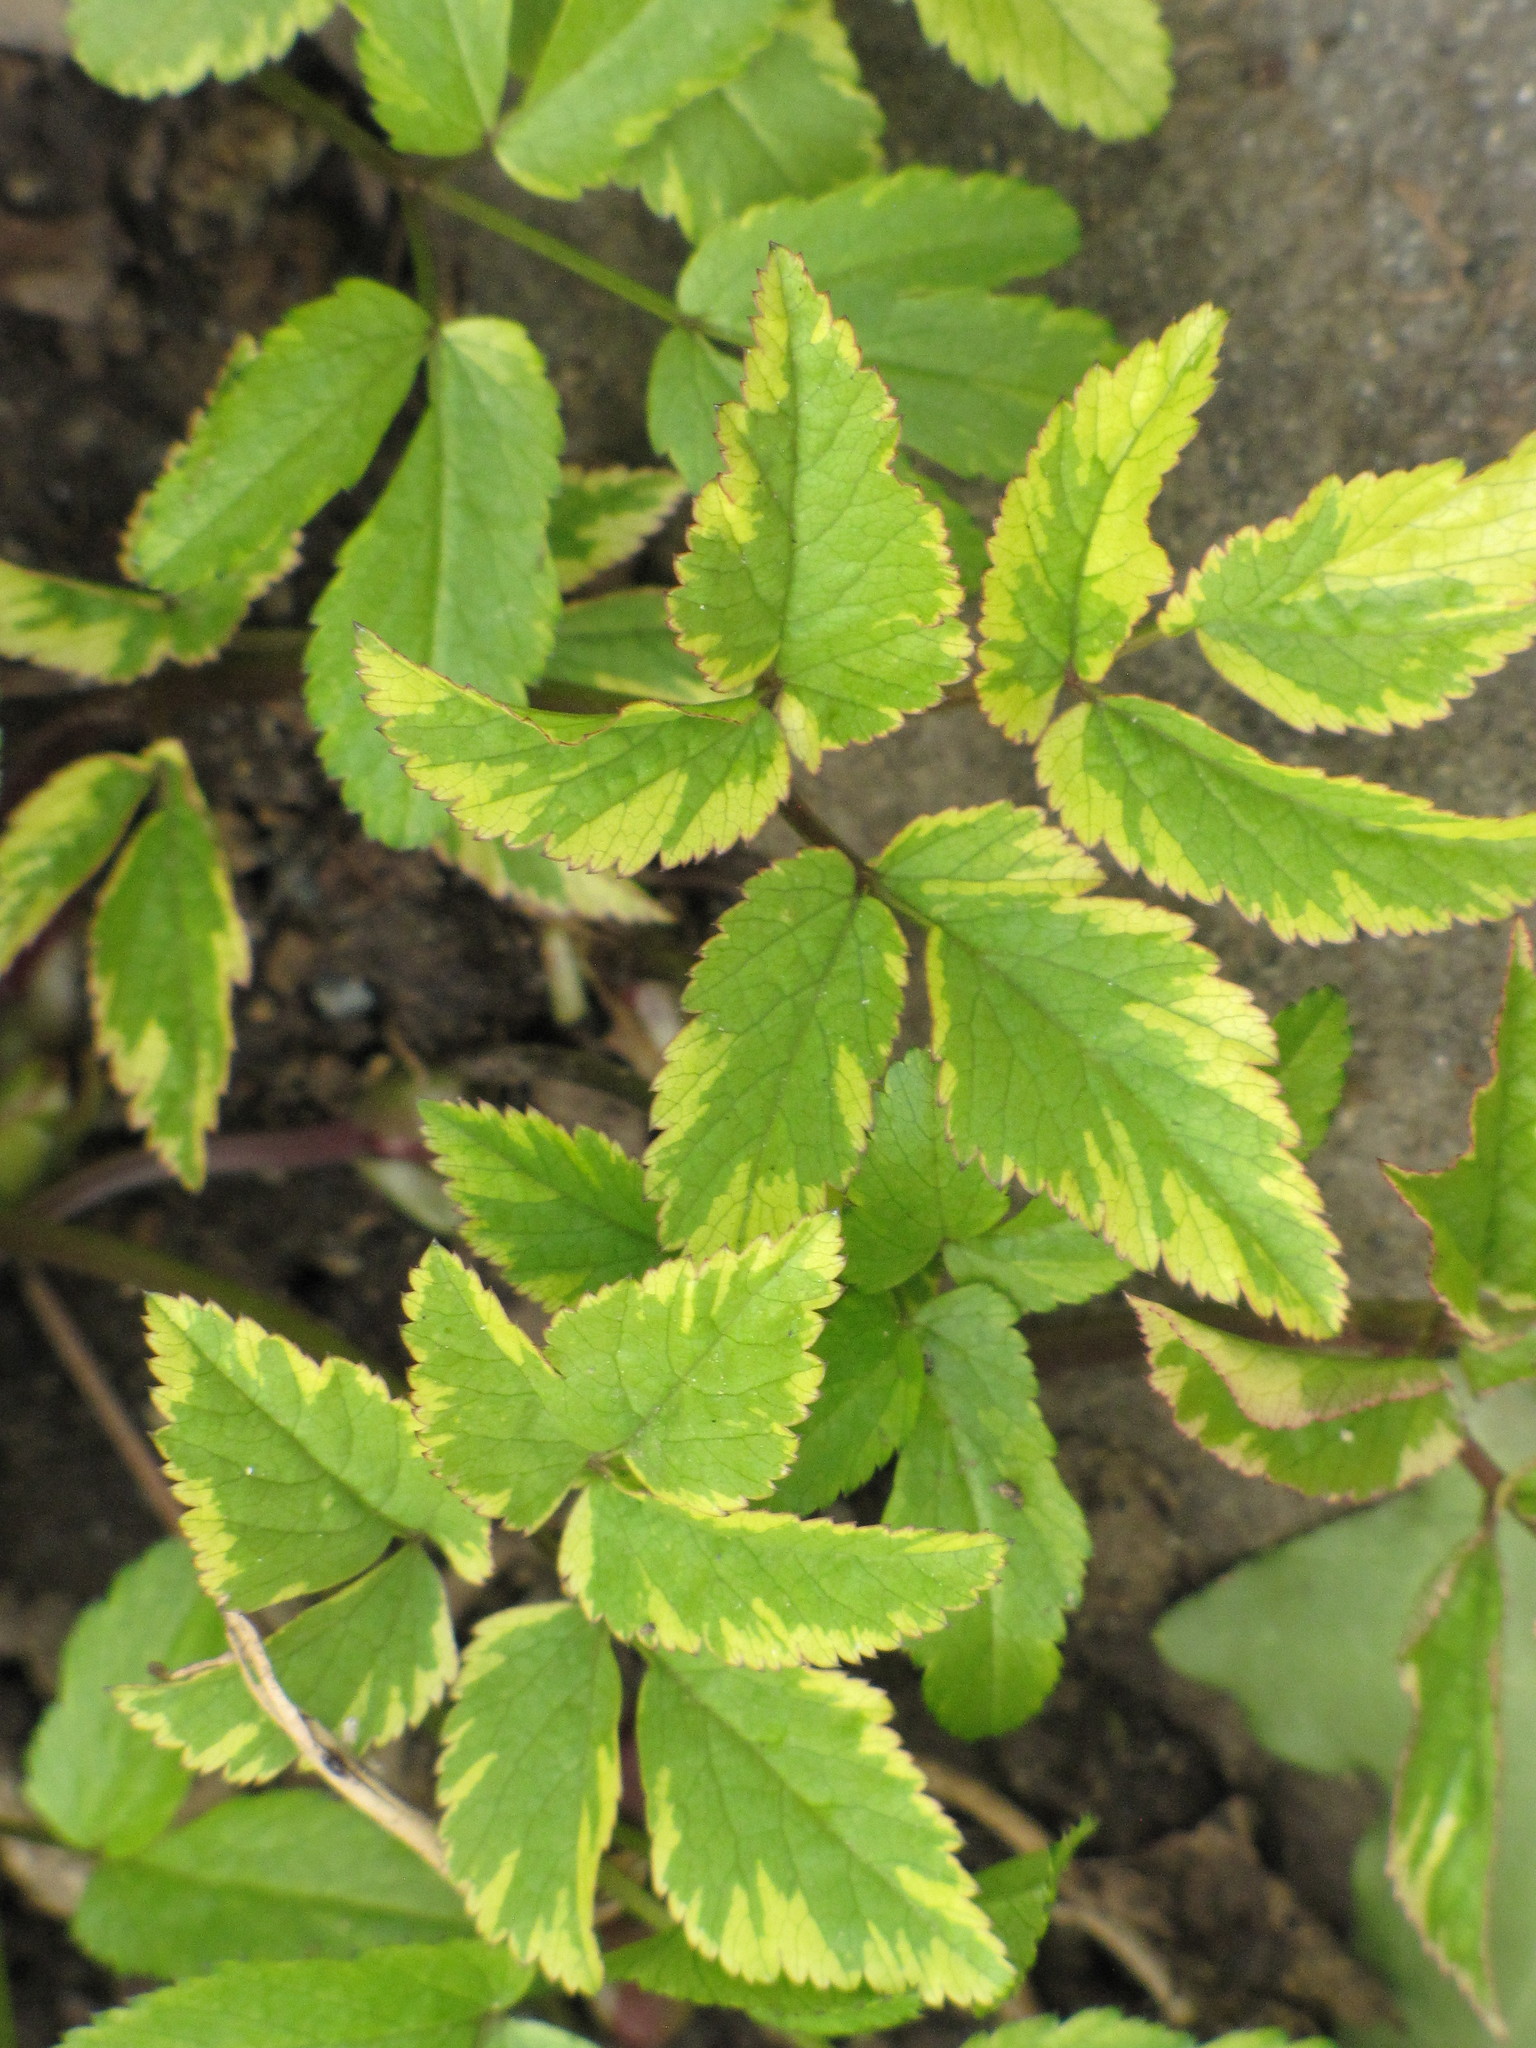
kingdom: Plantae
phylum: Tracheophyta
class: Magnoliopsida
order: Apiales
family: Apiaceae
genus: Aegopodium
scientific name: Aegopodium podagraria
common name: Ground-elder
